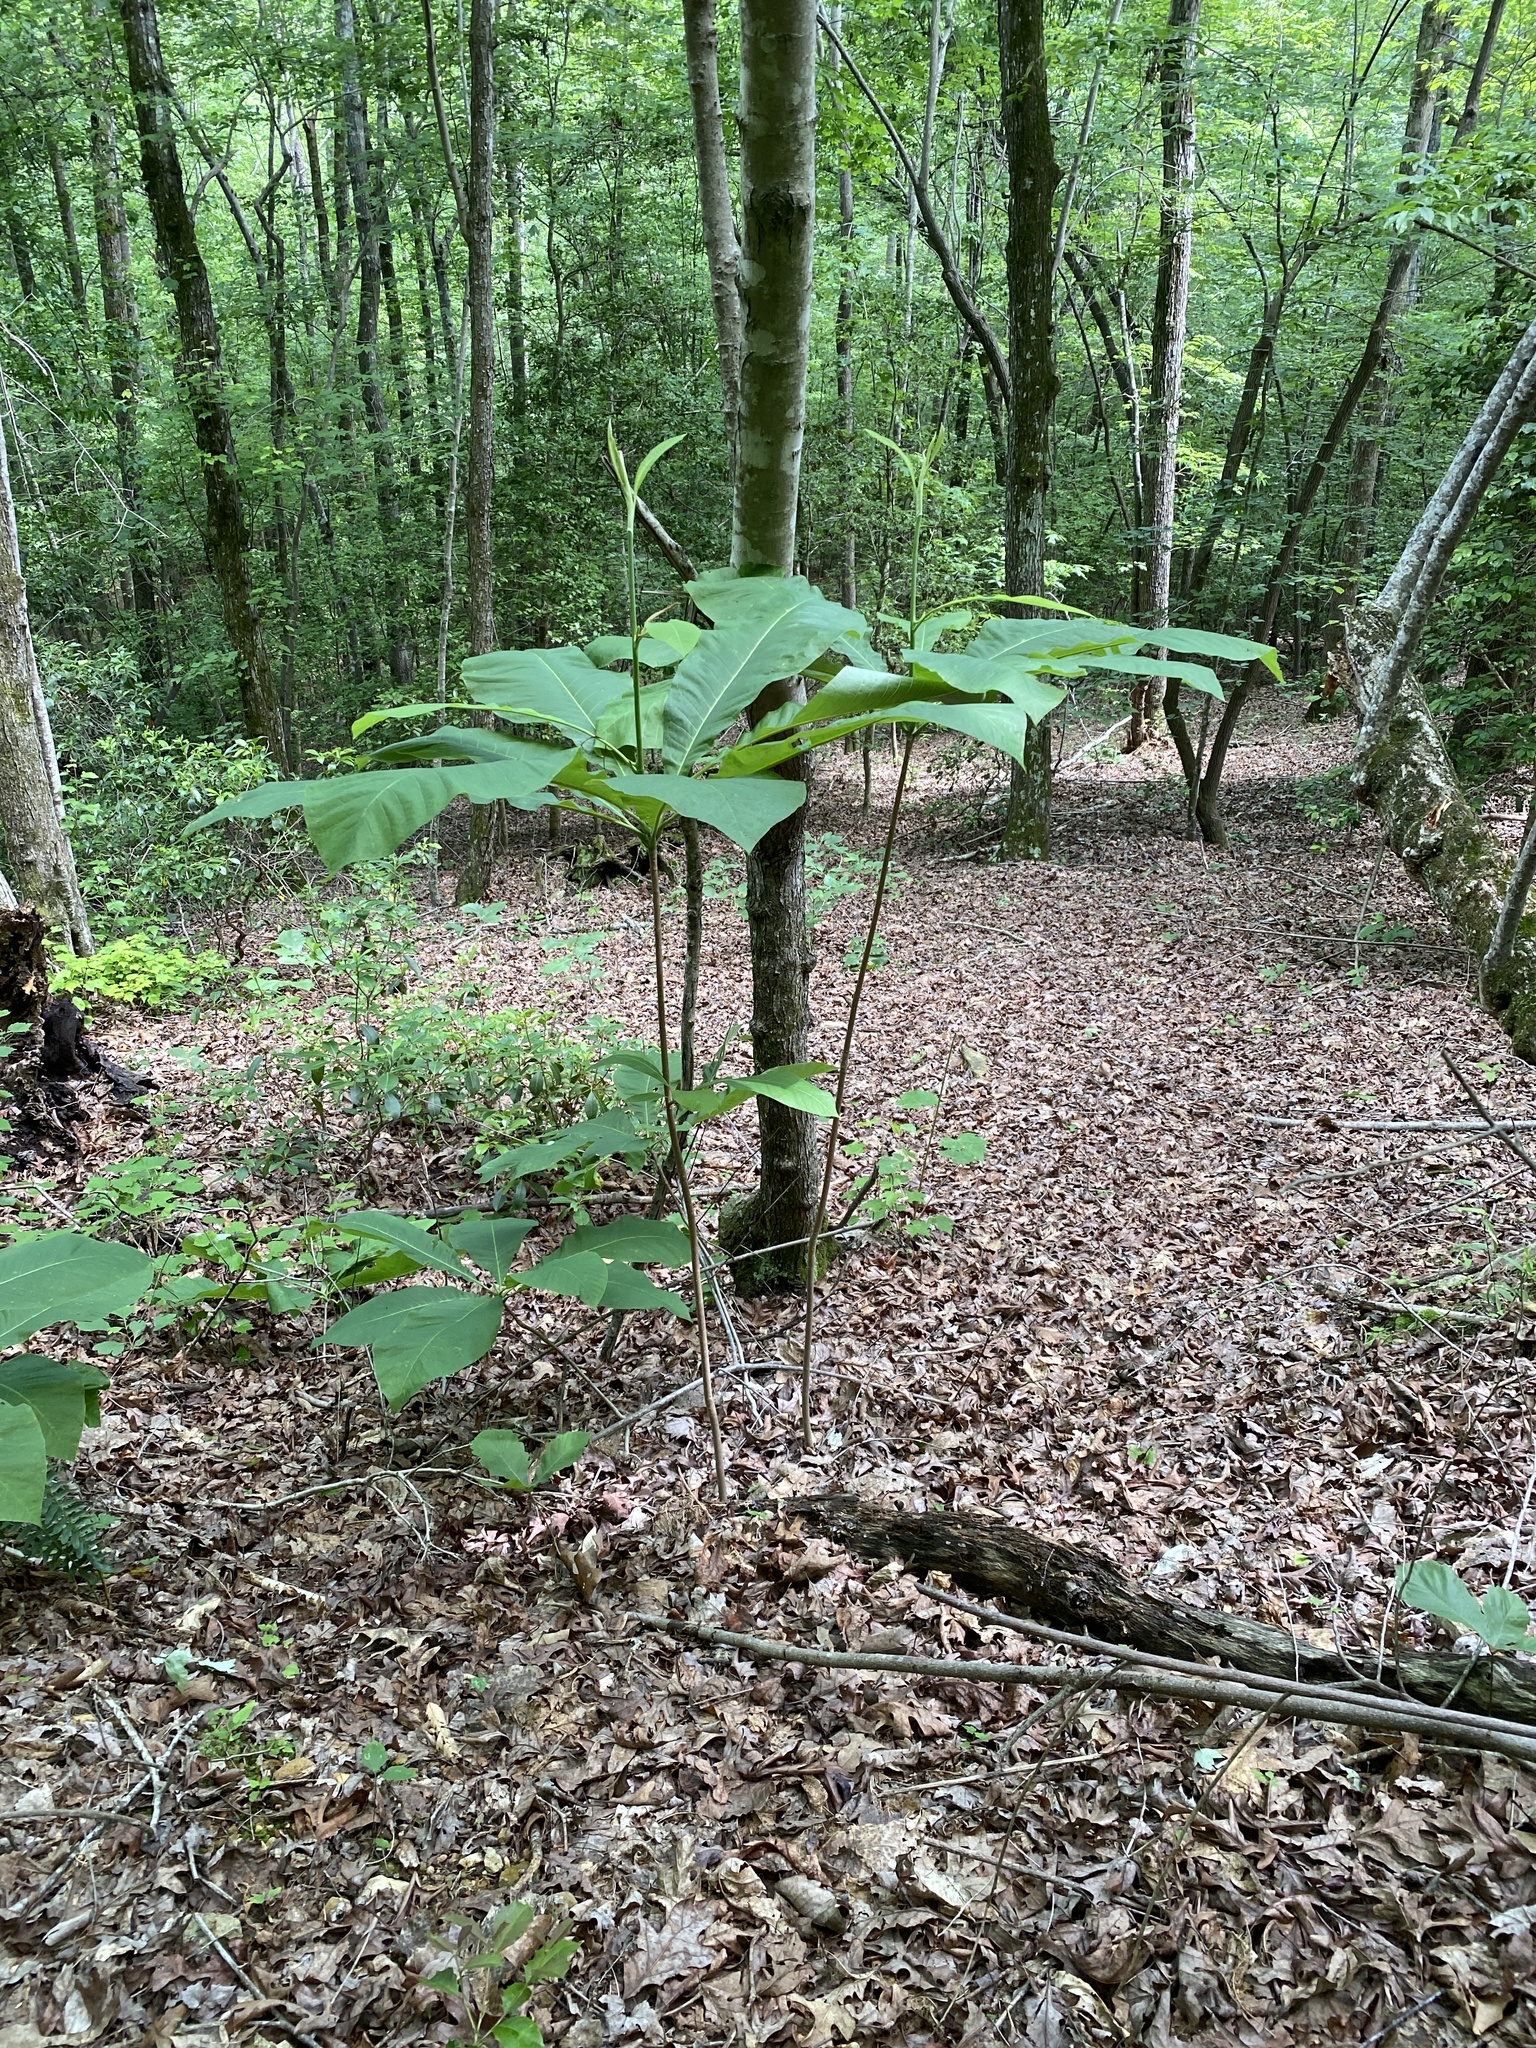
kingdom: Plantae
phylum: Tracheophyta
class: Magnoliopsida
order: Magnoliales
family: Magnoliaceae
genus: Magnolia
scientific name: Magnolia tripetala
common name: Umbrella magnolia
